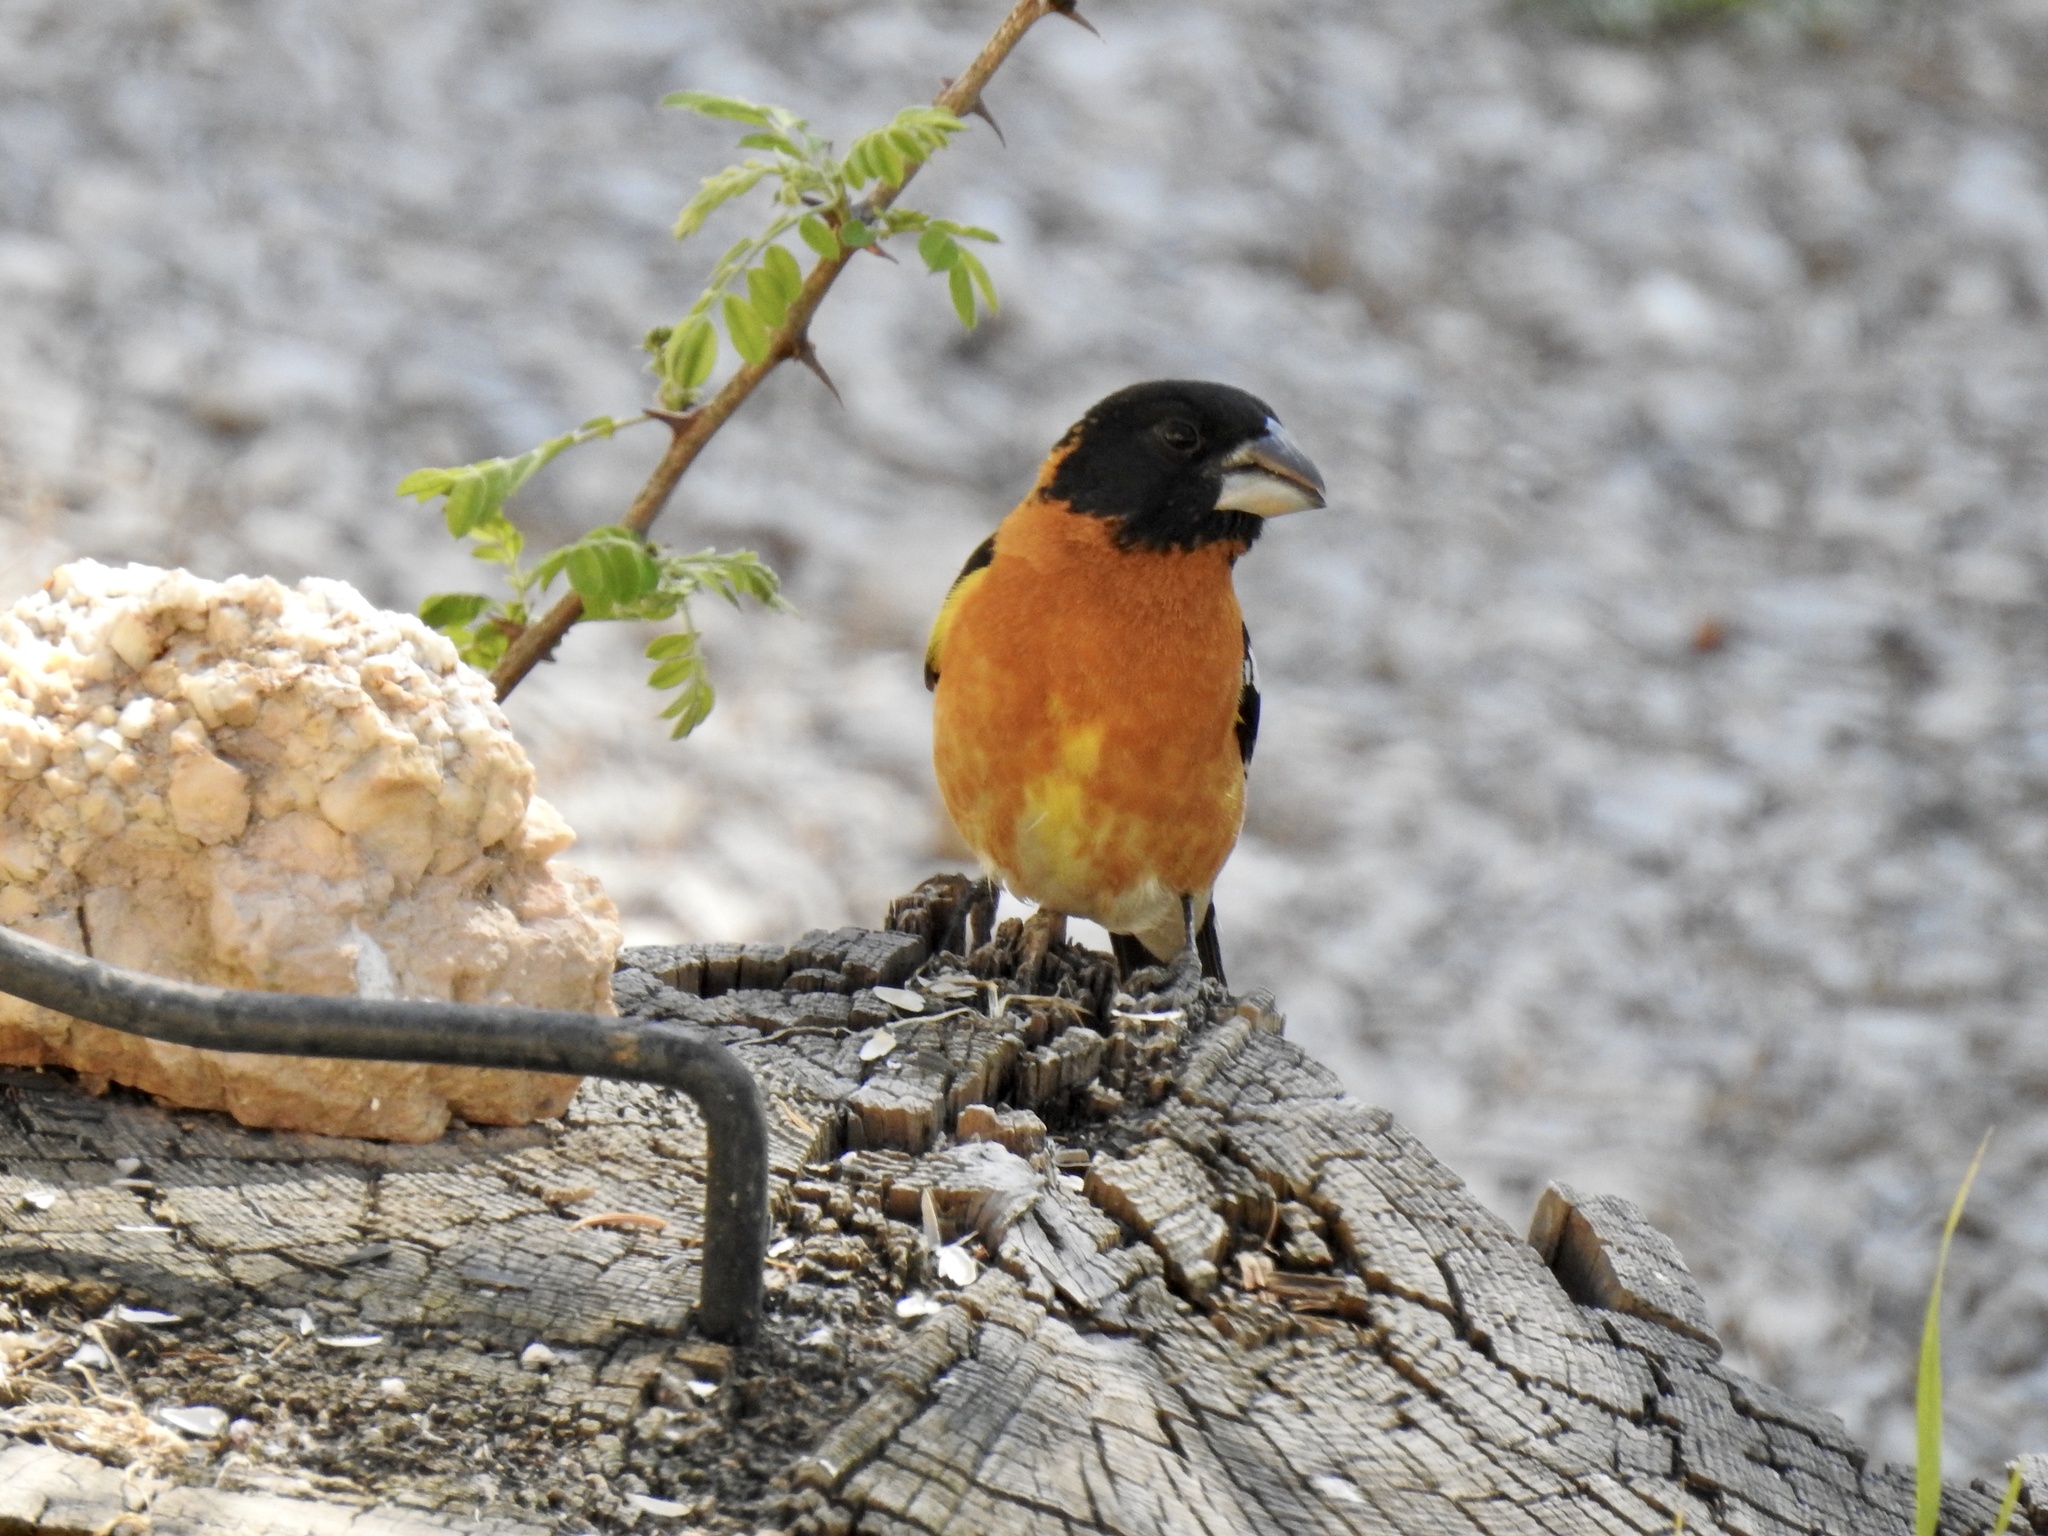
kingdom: Animalia
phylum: Chordata
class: Aves
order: Passeriformes
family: Cardinalidae
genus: Pheucticus
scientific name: Pheucticus melanocephalus
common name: Black-headed grosbeak
